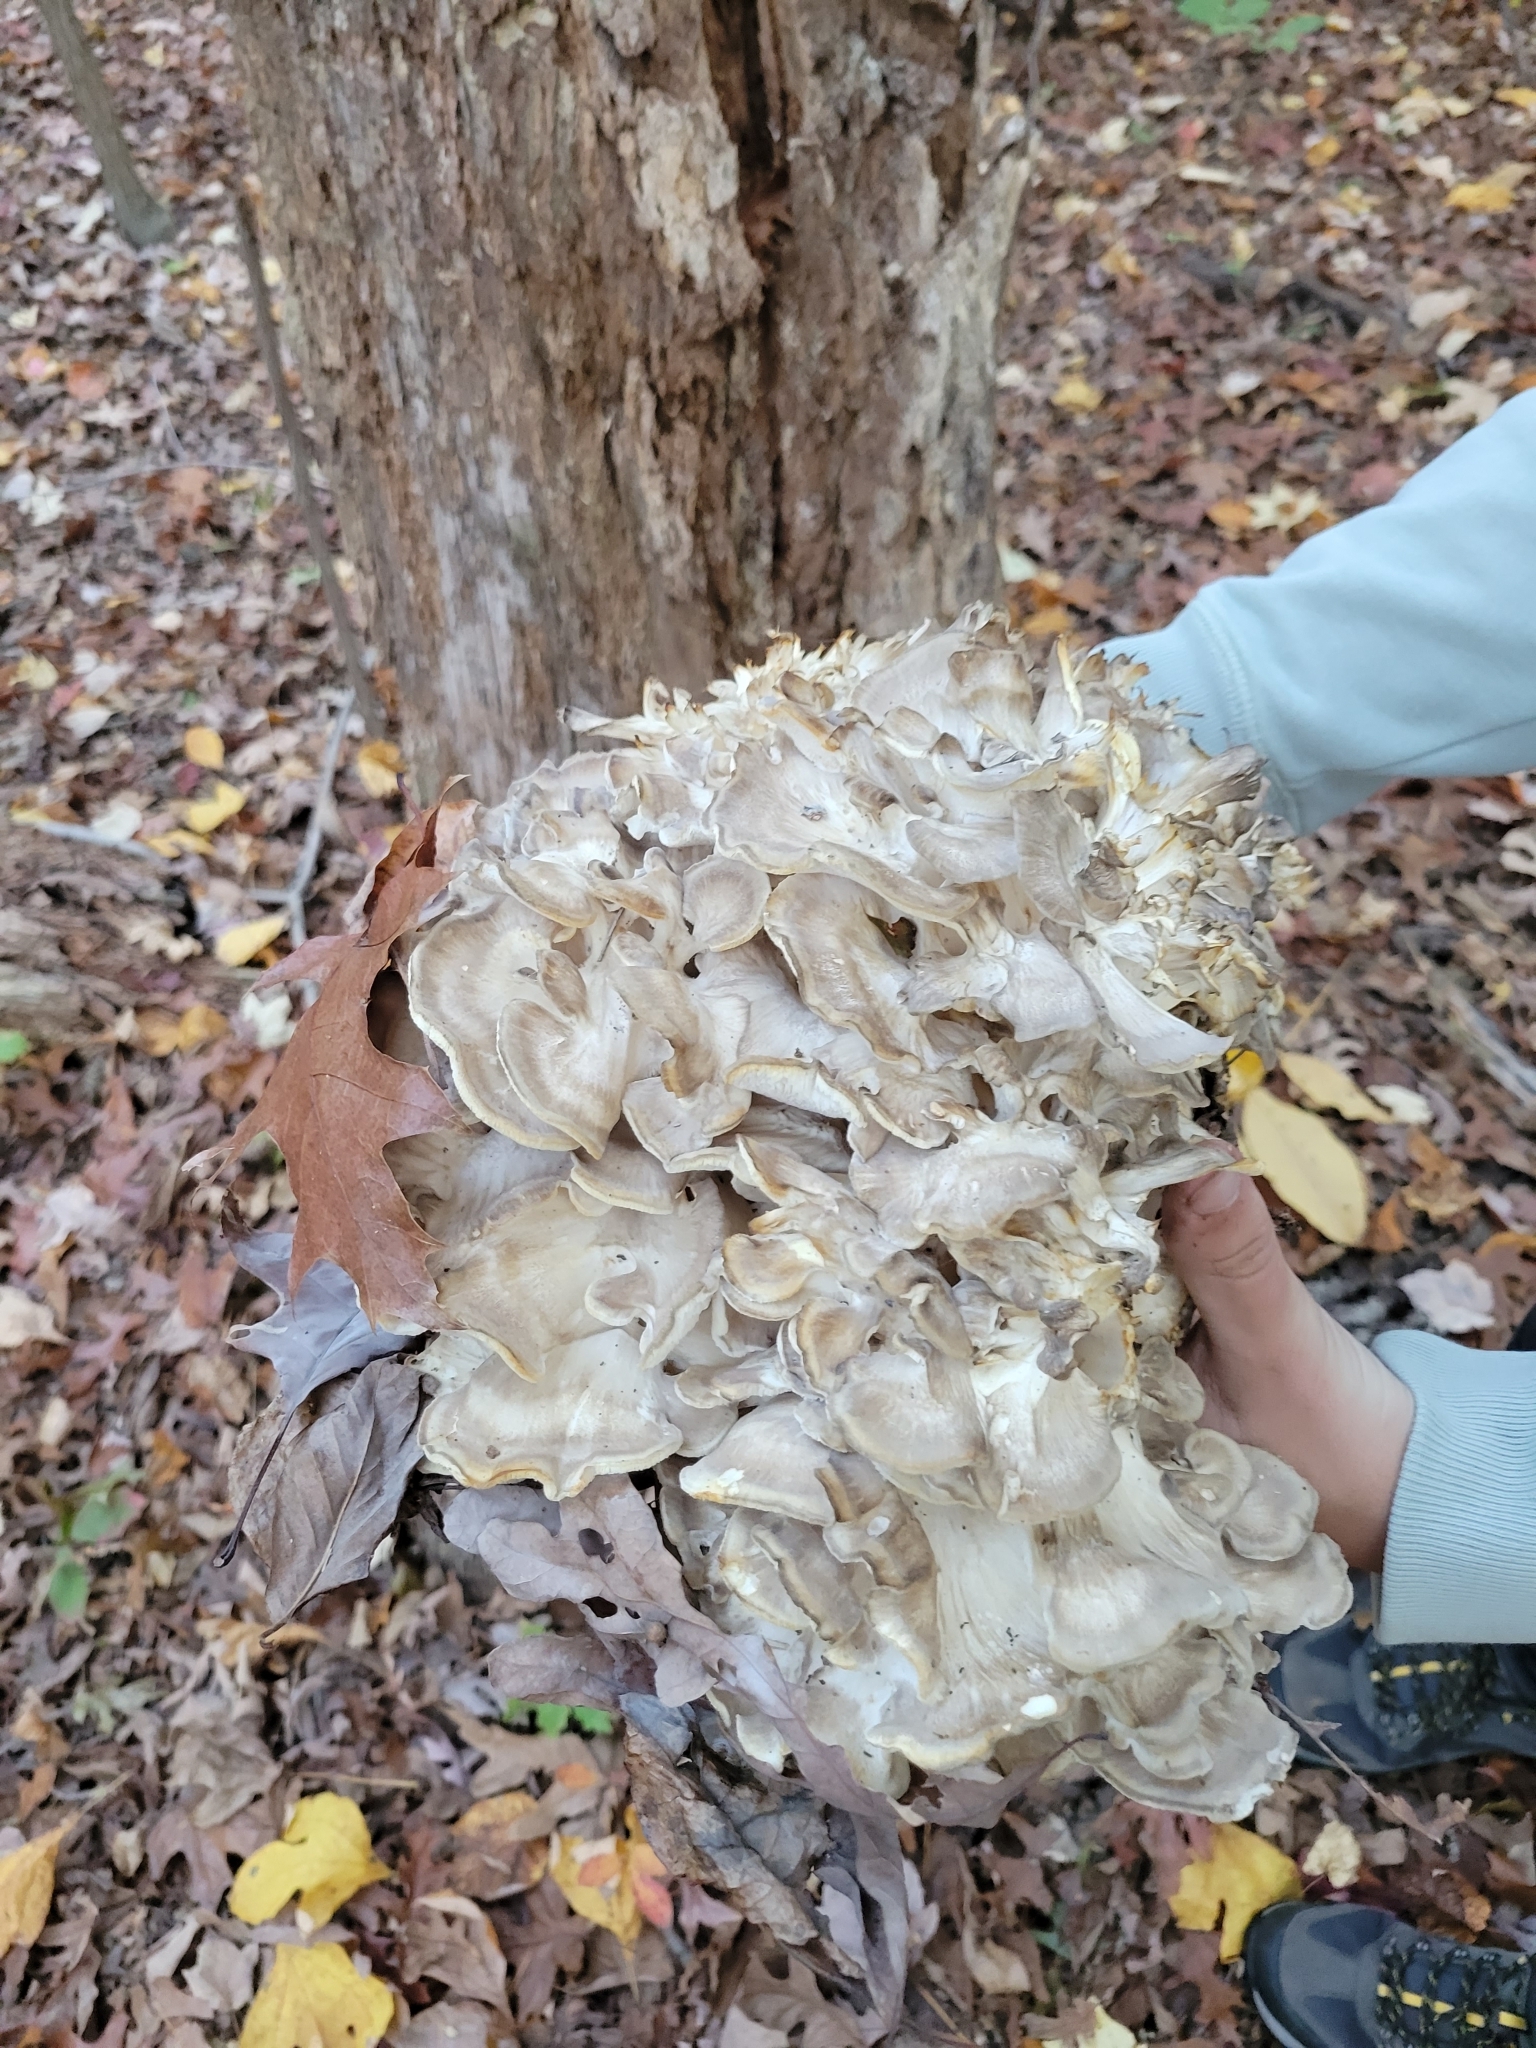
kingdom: Fungi
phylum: Basidiomycota
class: Agaricomycetes
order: Polyporales
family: Grifolaceae
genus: Grifola
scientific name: Grifola frondosa
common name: Hen of the woods
